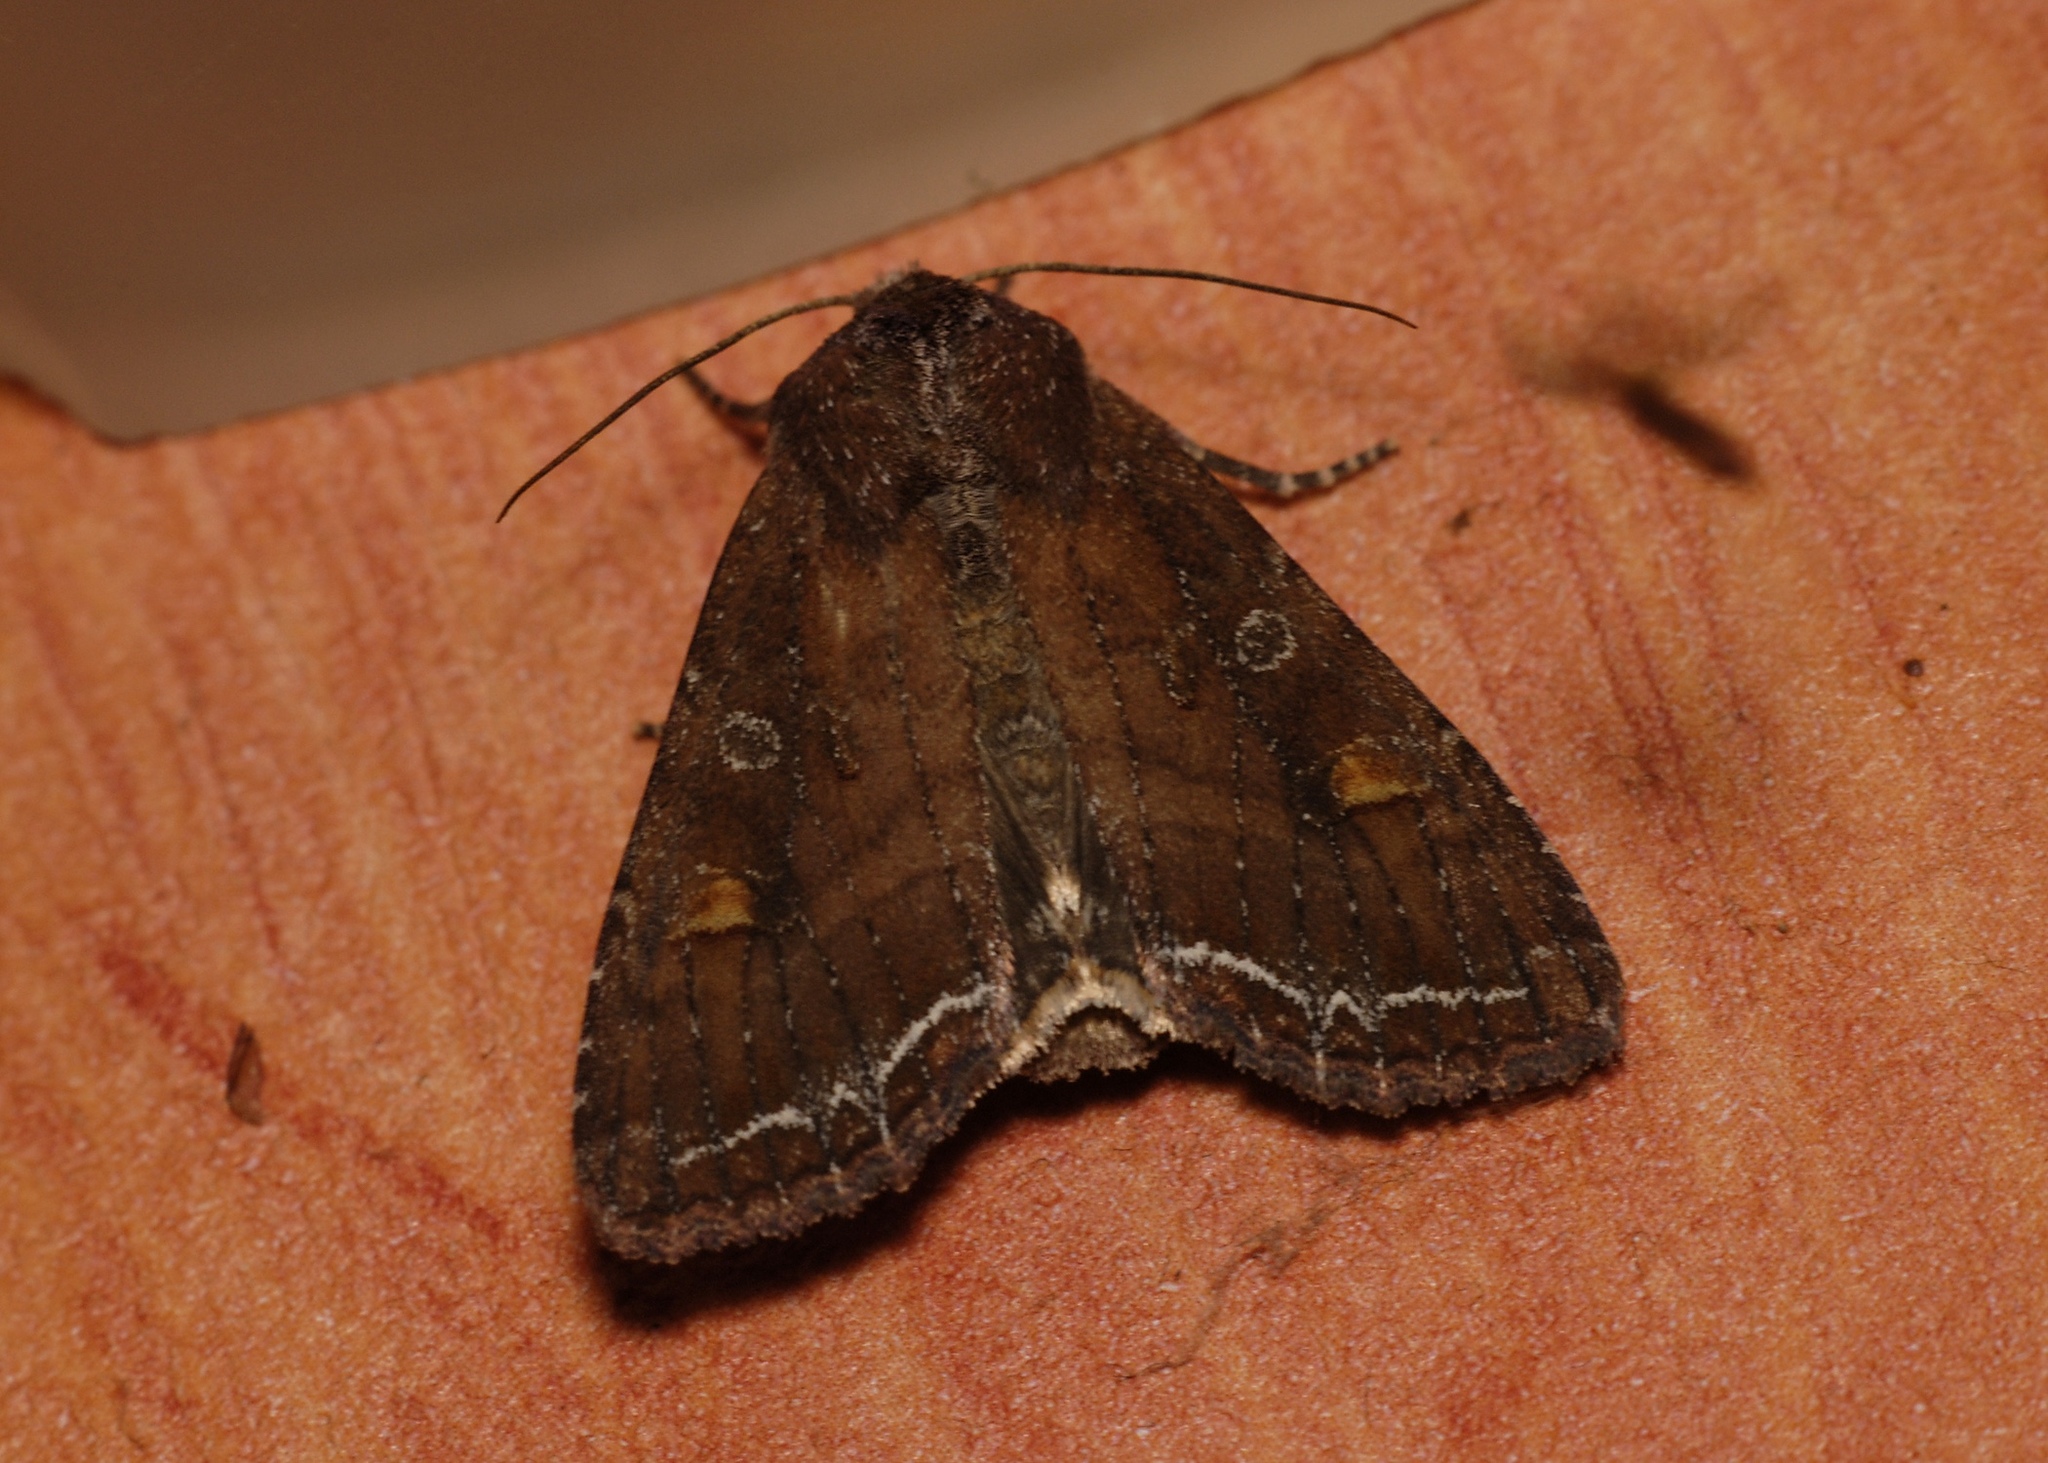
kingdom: Animalia
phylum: Arthropoda
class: Insecta
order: Lepidoptera
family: Noctuidae
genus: Lacanobia
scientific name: Lacanobia oleracea
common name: Bright-line brown-eye
